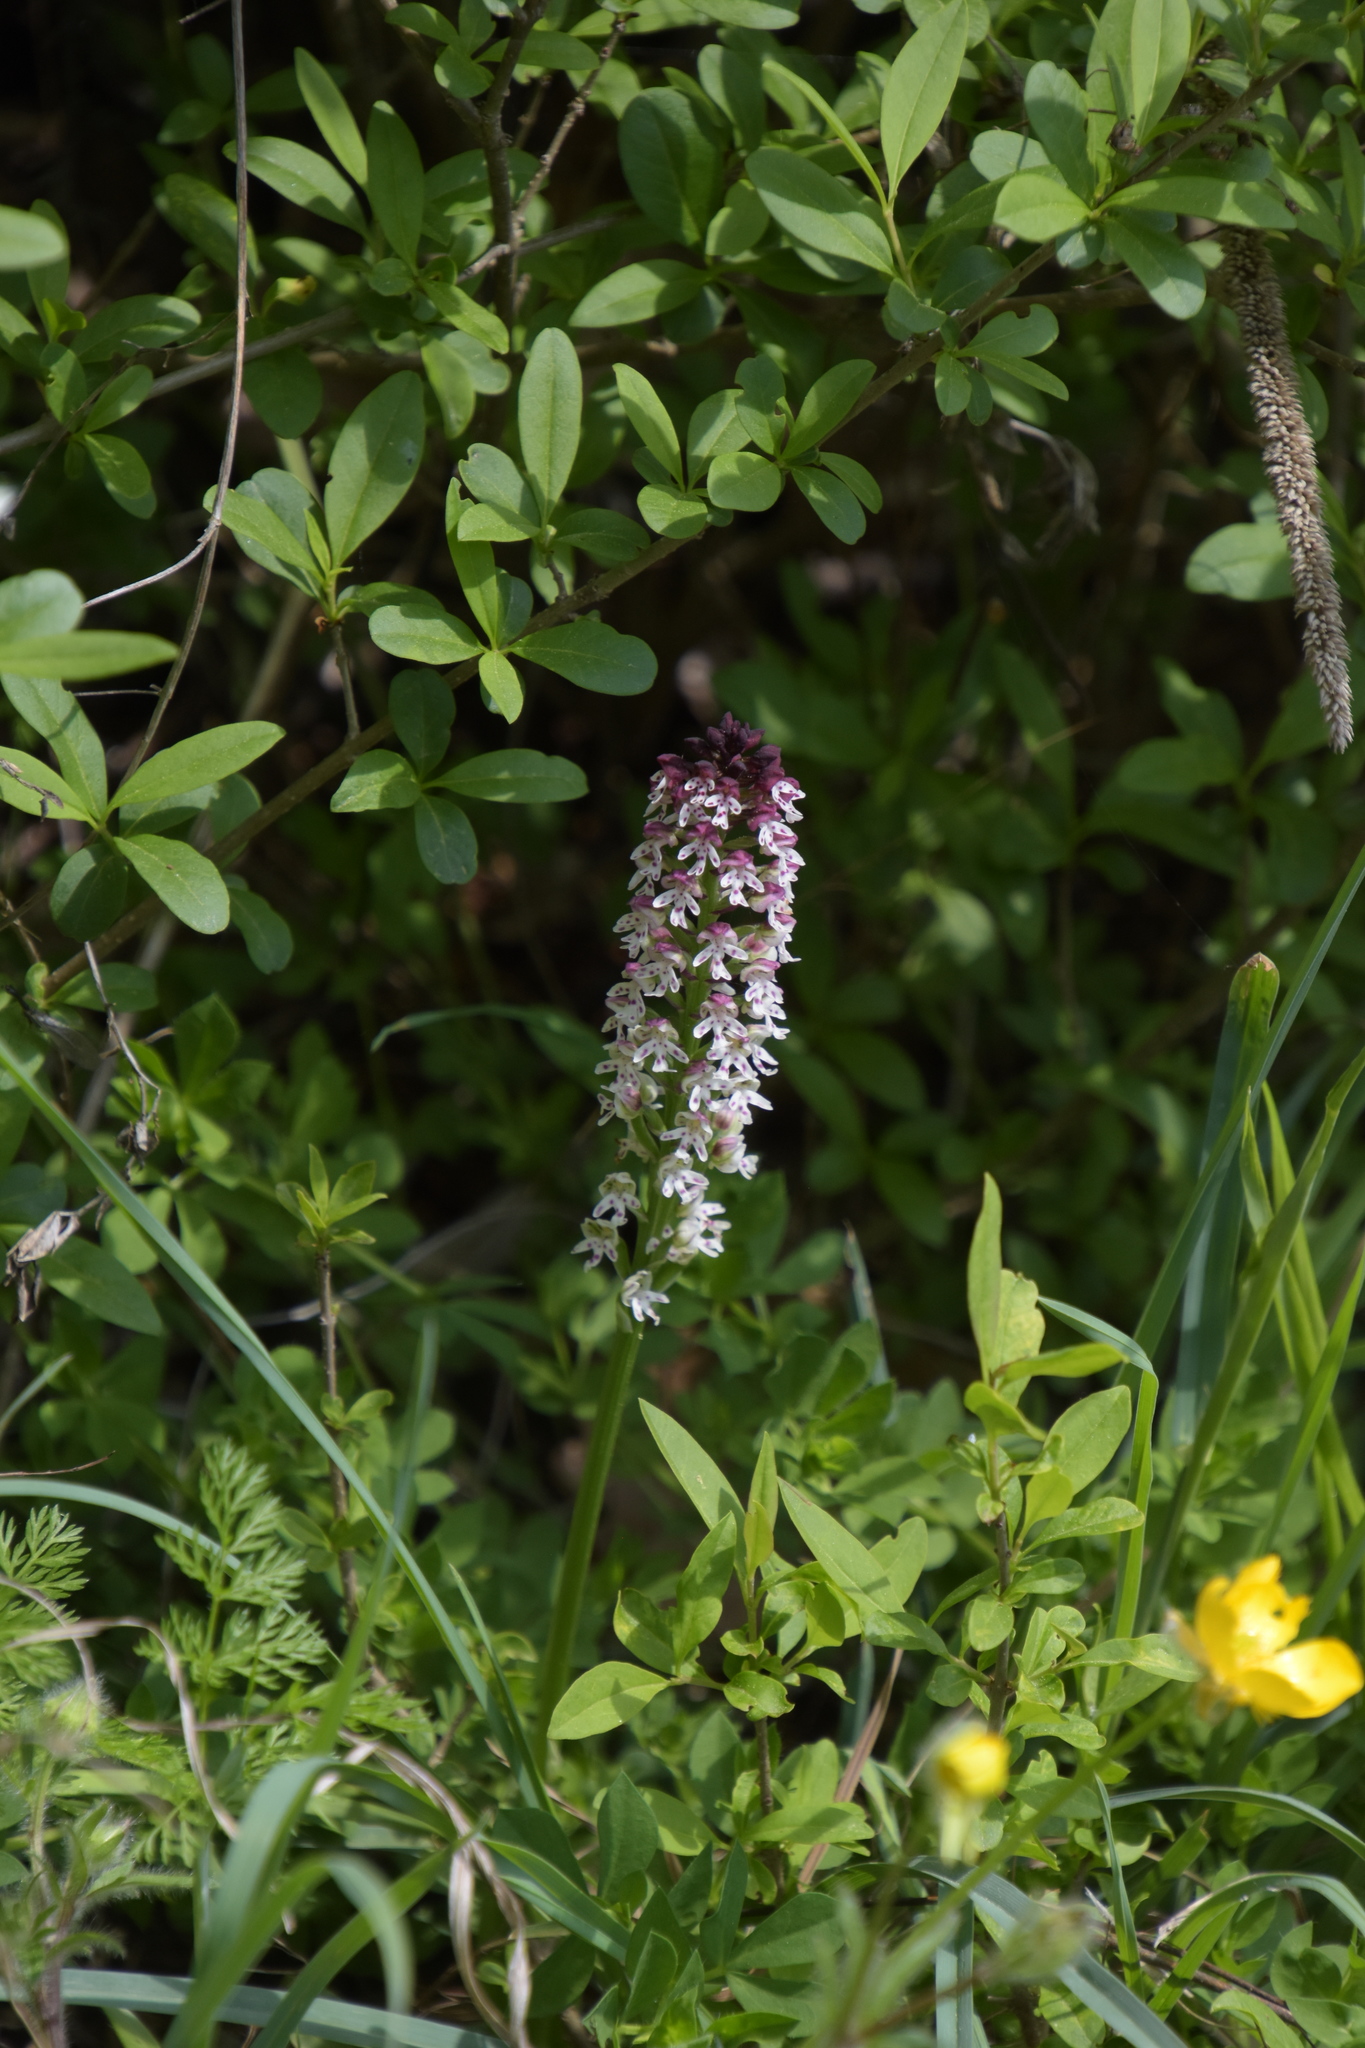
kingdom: Plantae
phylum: Tracheophyta
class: Liliopsida
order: Asparagales
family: Orchidaceae
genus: Neotinea
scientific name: Neotinea ustulata
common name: Burnt orchid
